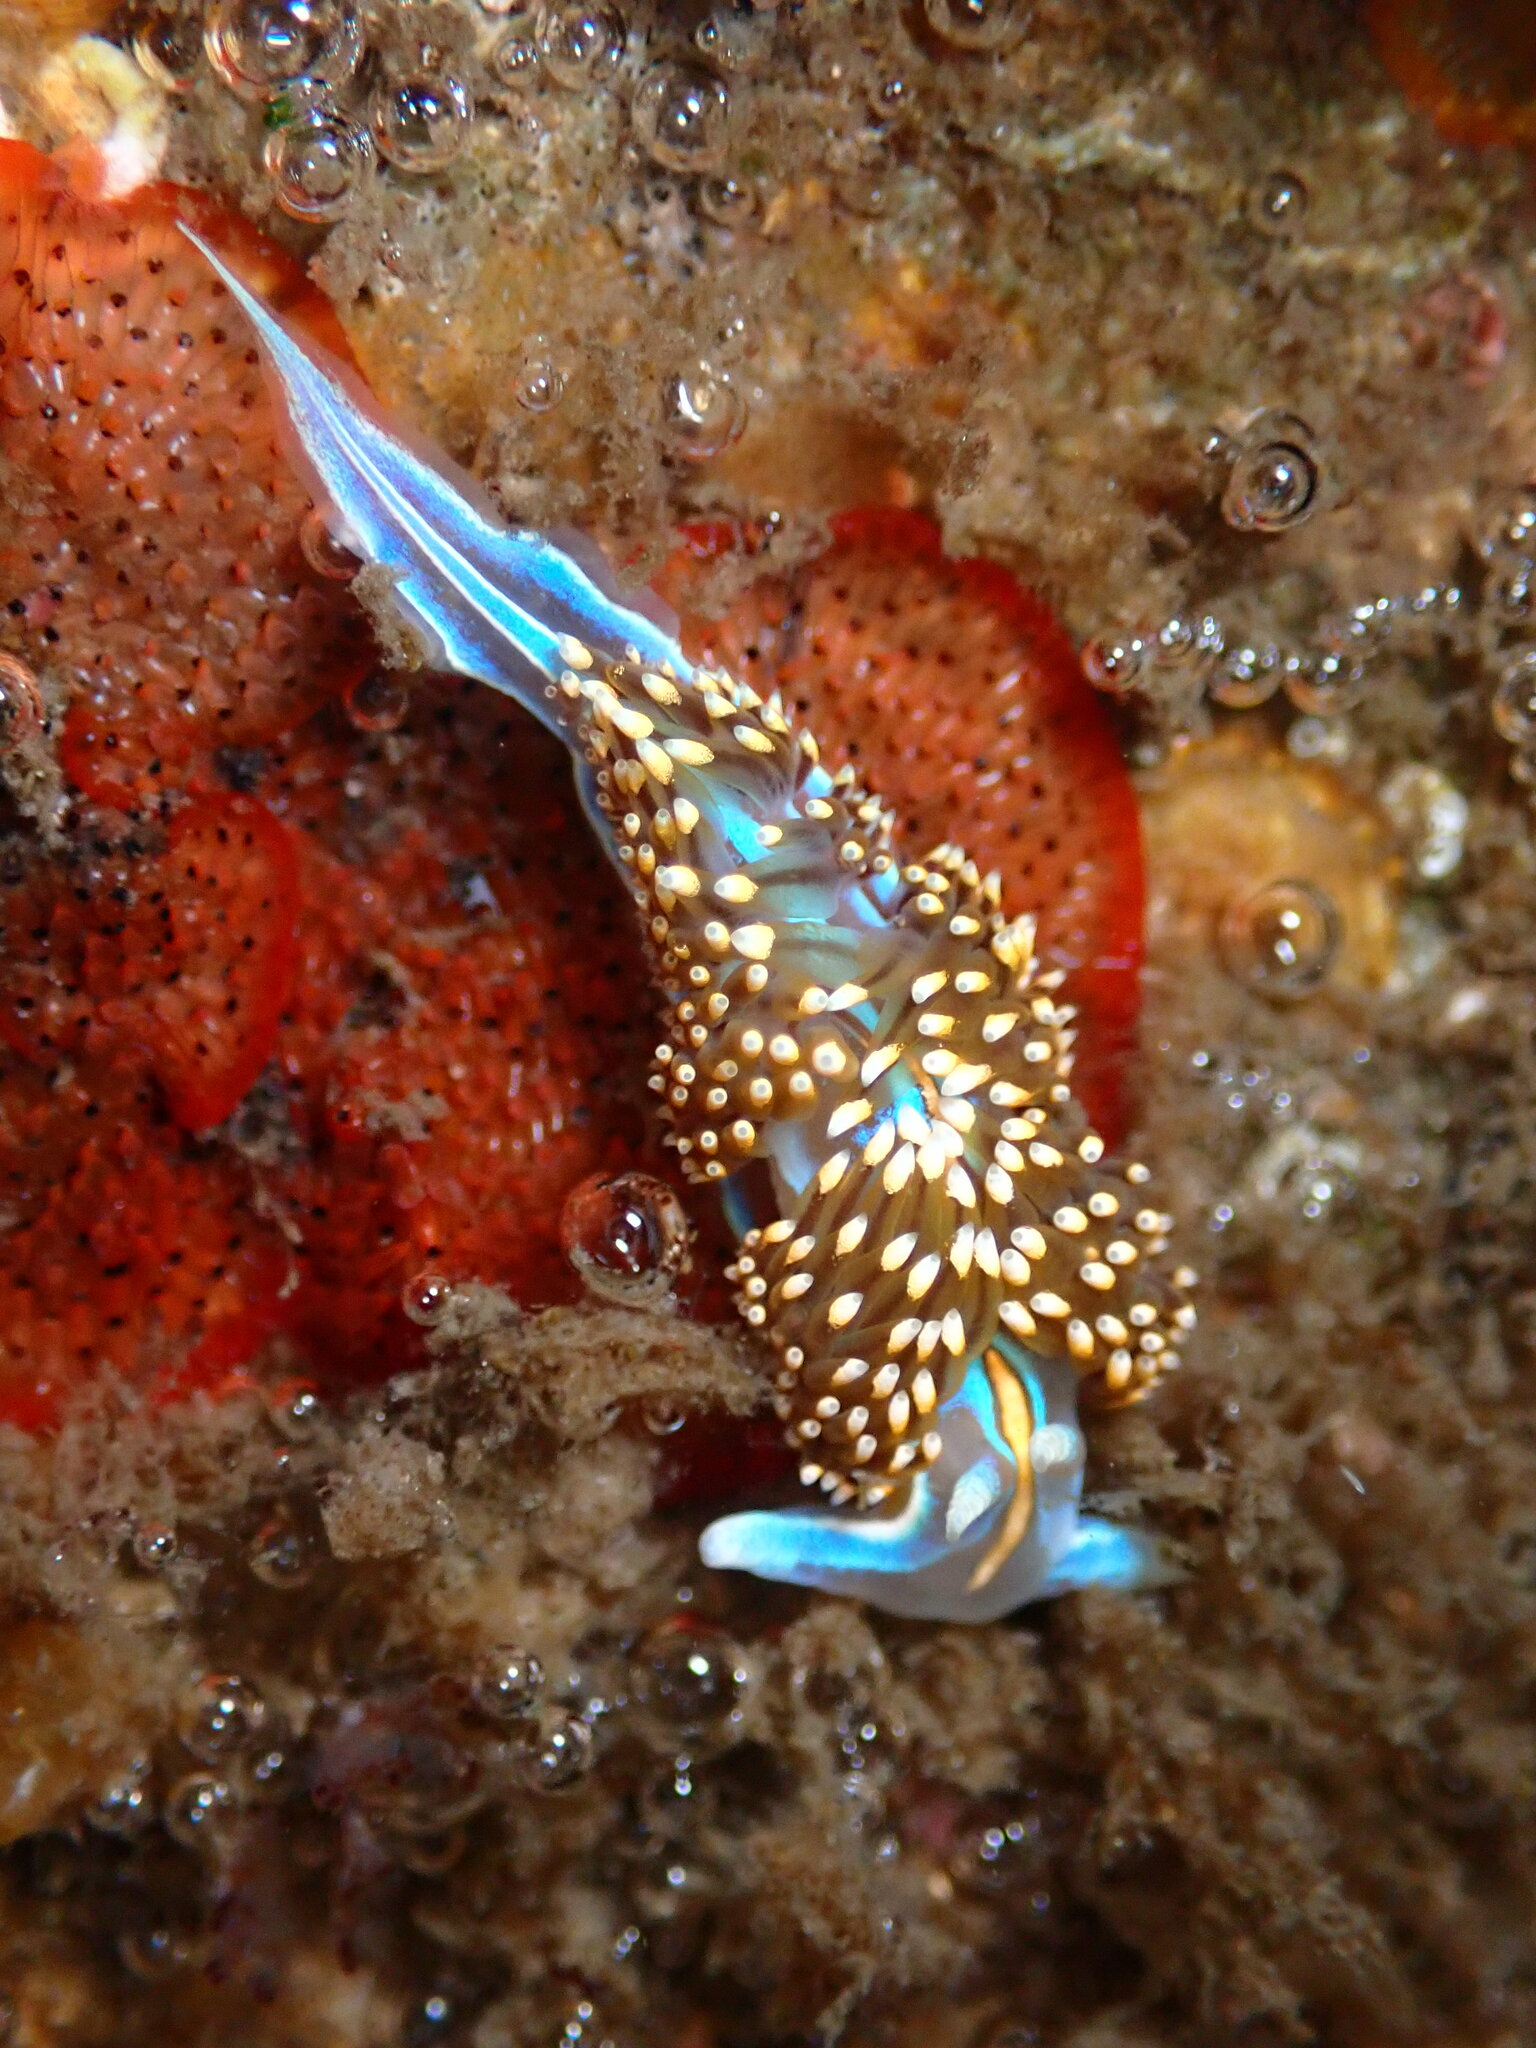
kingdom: Animalia
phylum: Mollusca
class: Gastropoda
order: Nudibranchia
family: Myrrhinidae
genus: Hermissenda
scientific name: Hermissenda opalescens
